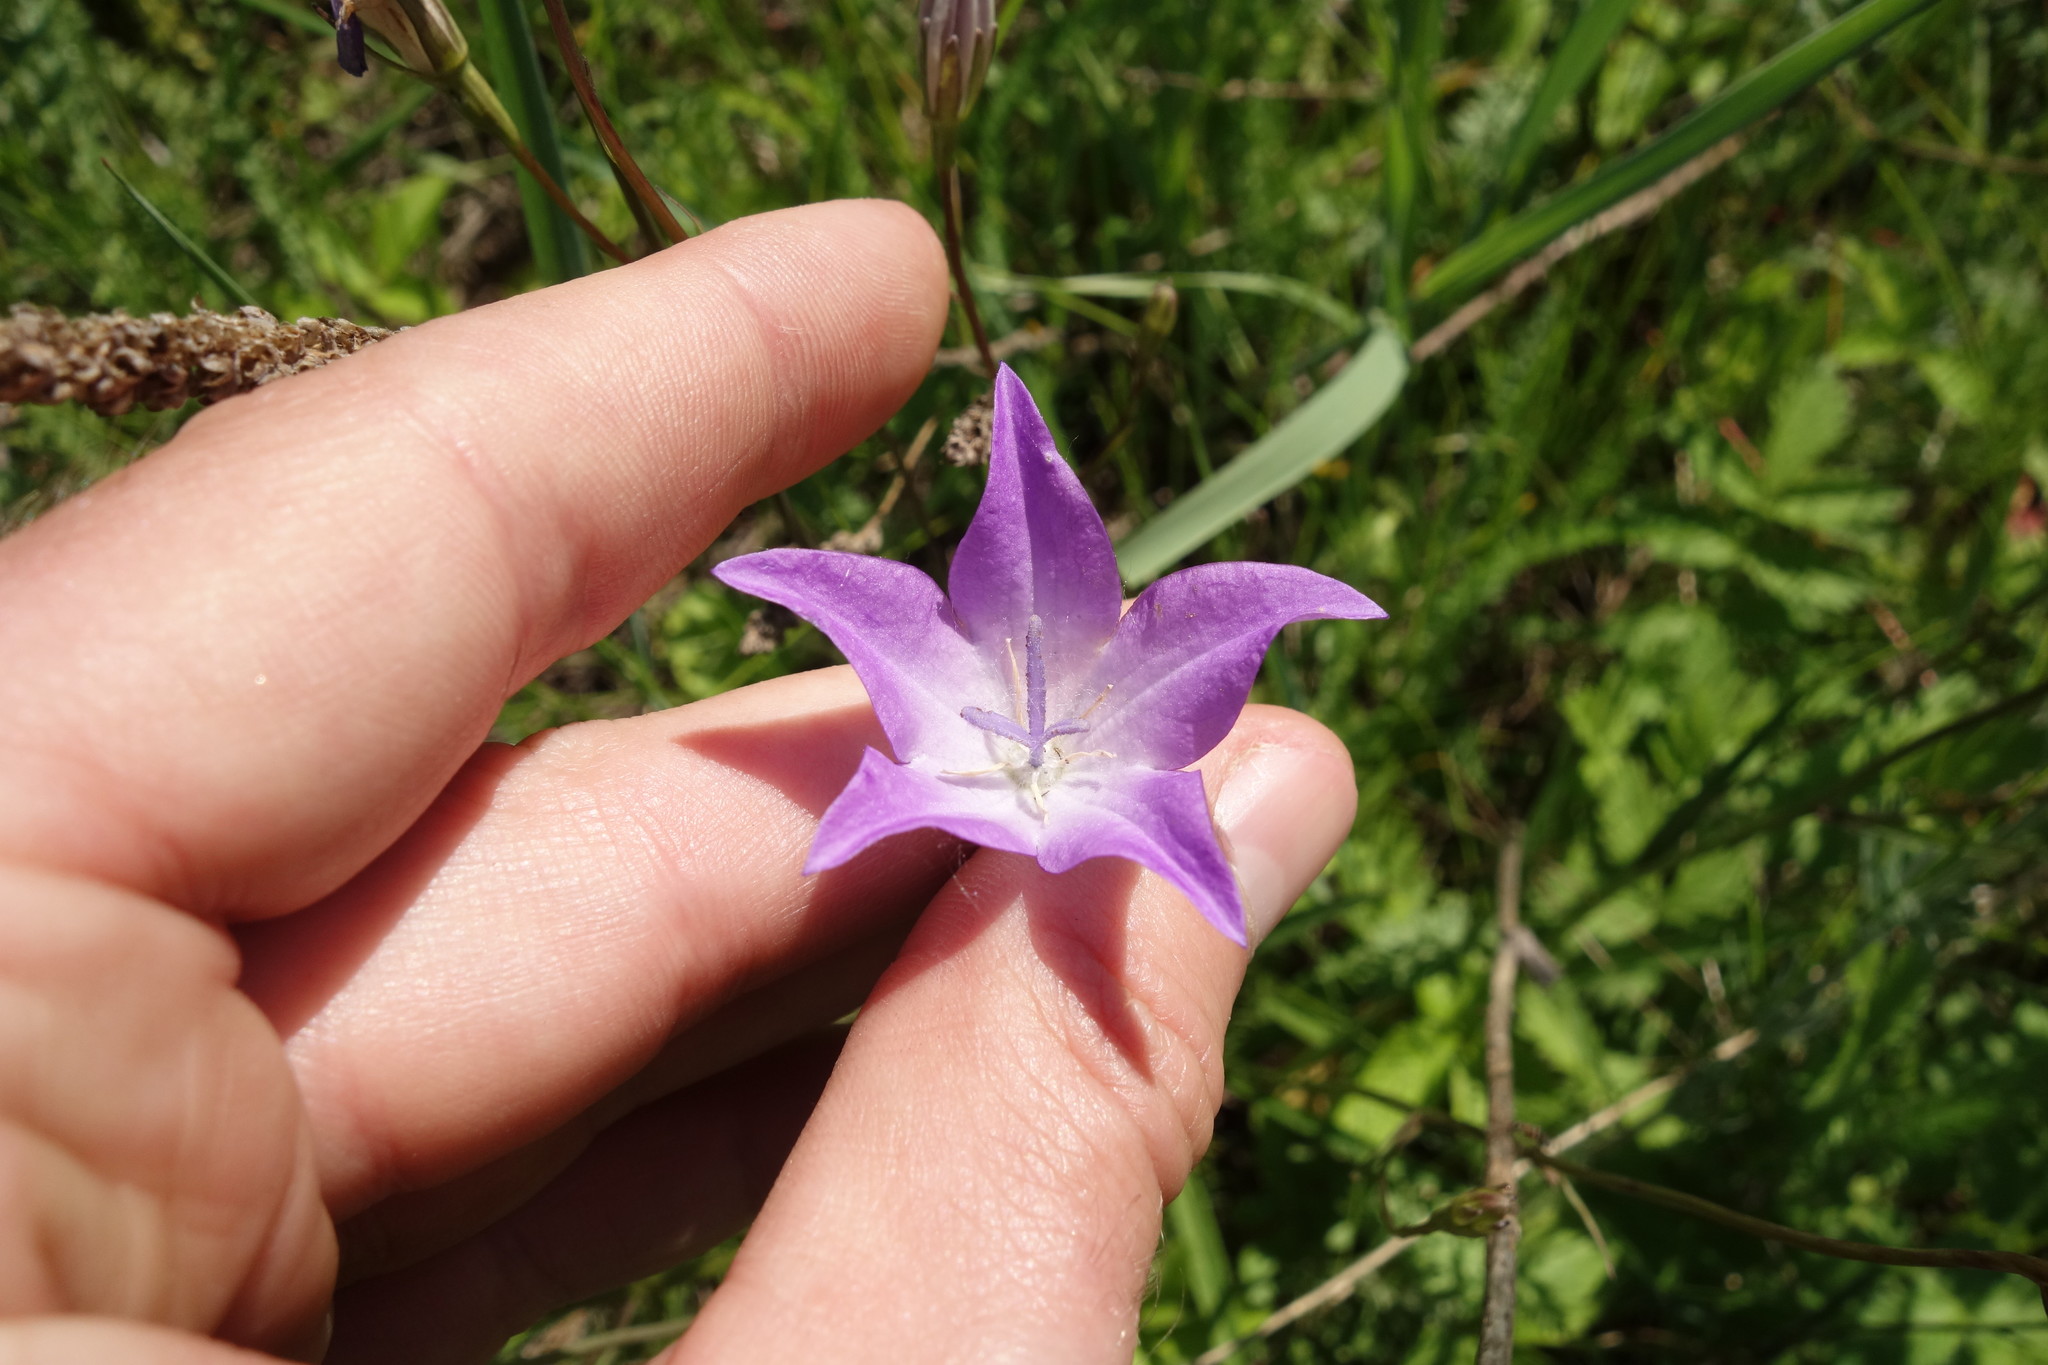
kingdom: Plantae
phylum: Tracheophyta
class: Magnoliopsida
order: Asterales
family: Campanulaceae
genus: Campanula
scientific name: Campanula stevenii
